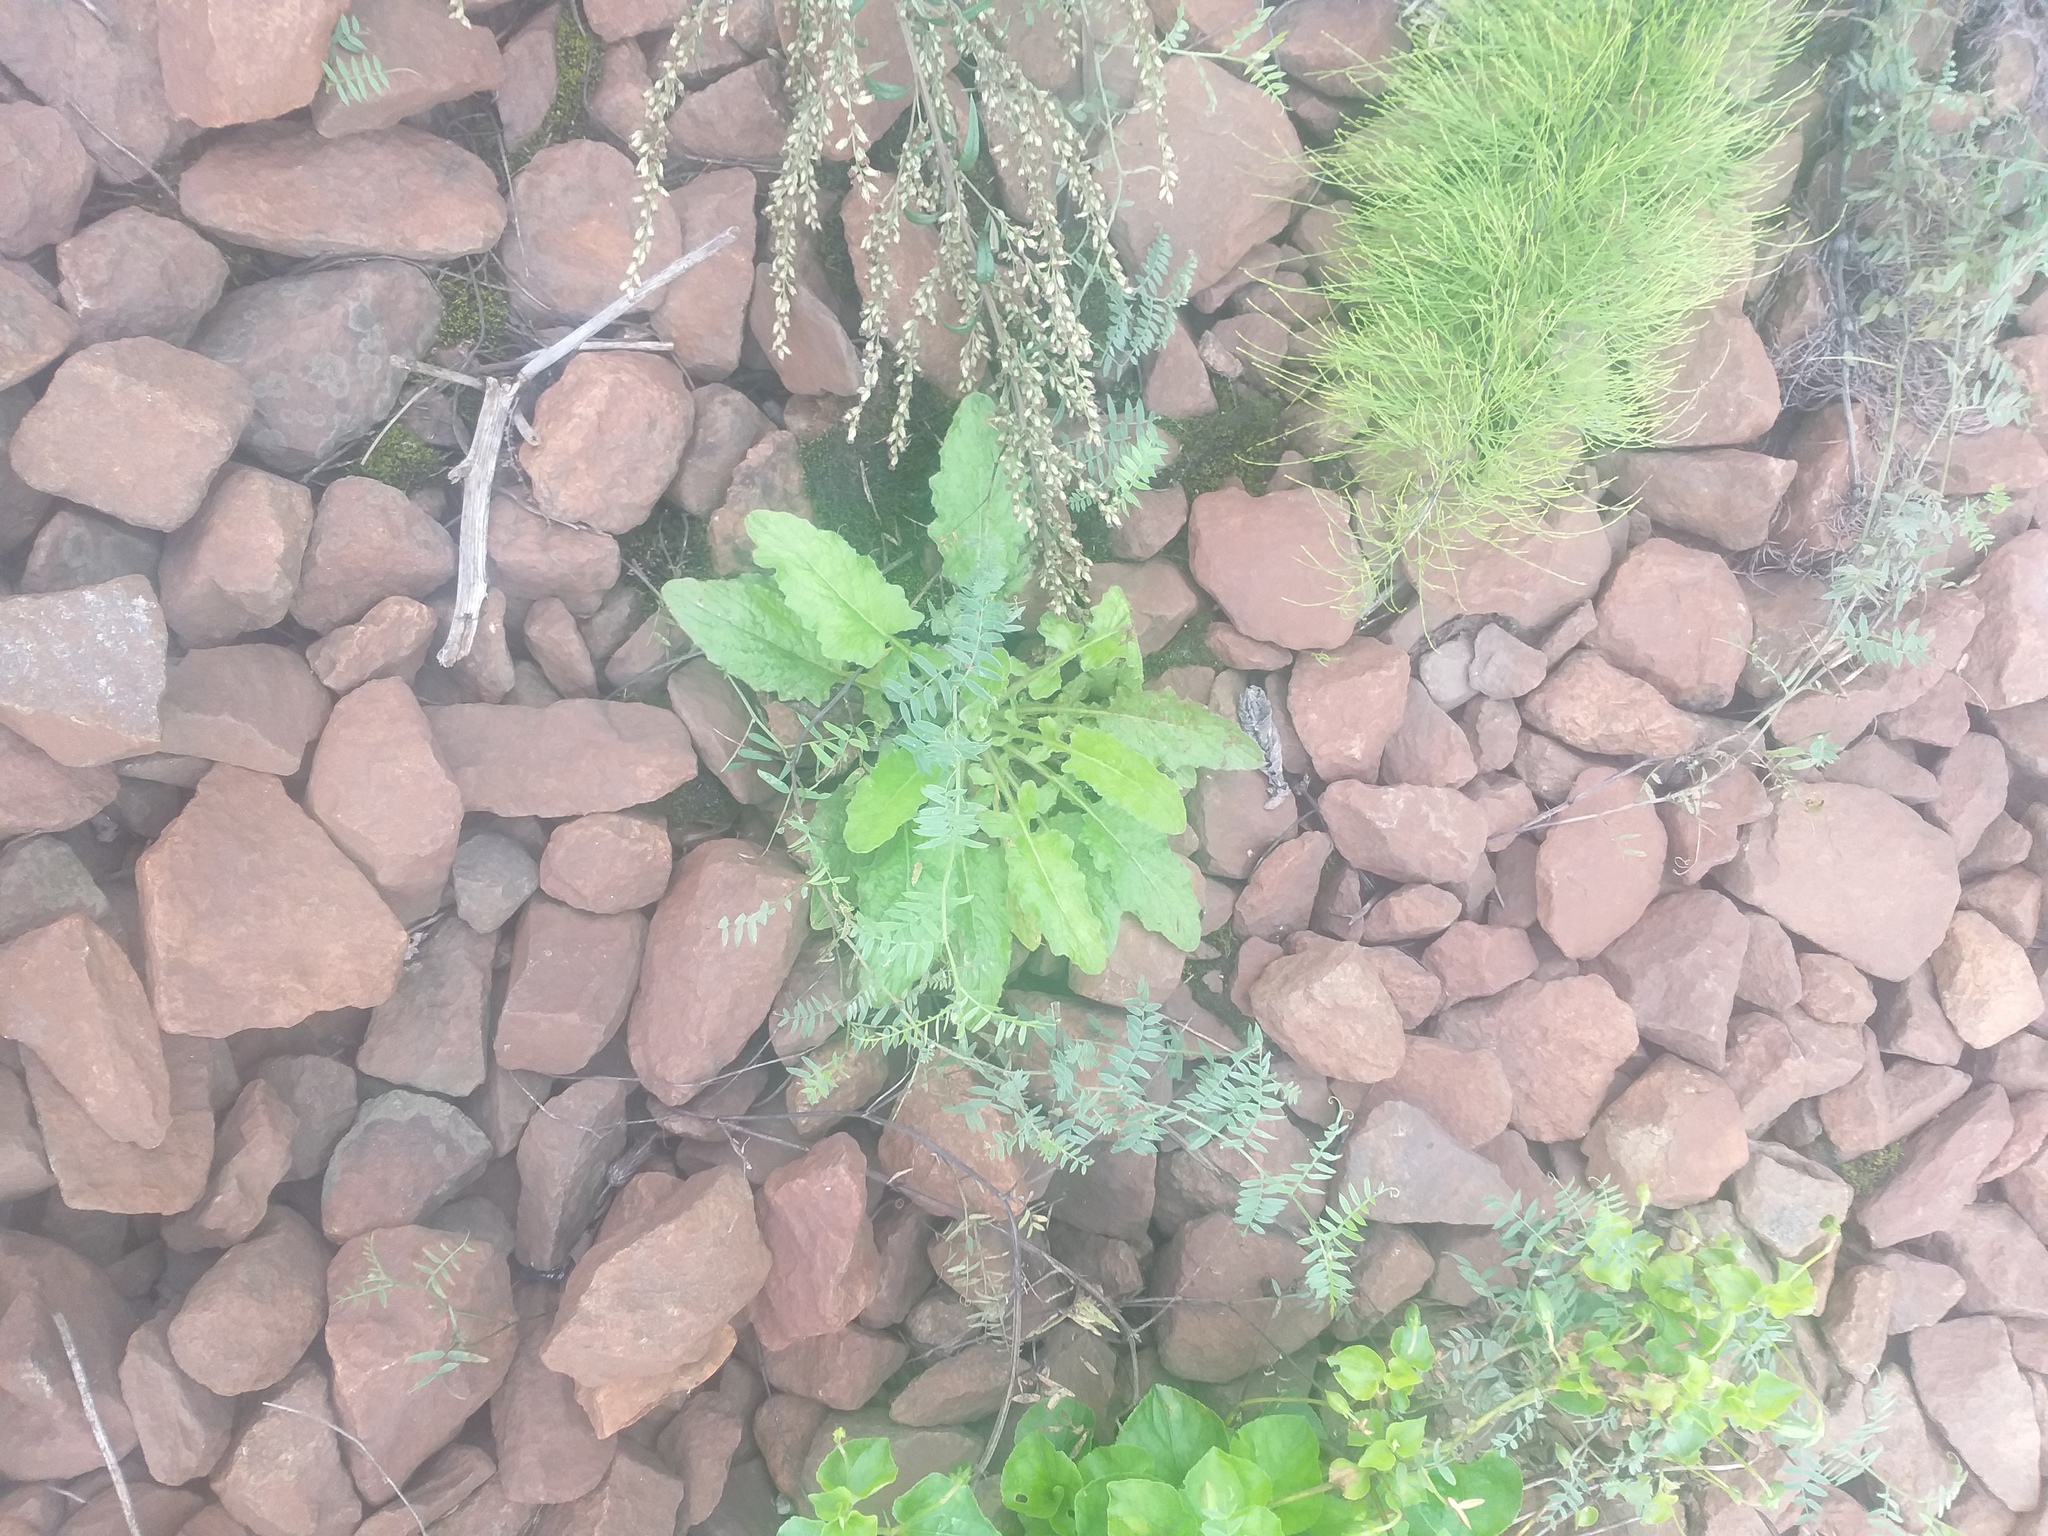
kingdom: Plantae
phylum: Tracheophyta
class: Magnoliopsida
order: Asterales
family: Asteraceae
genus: Lapsana
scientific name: Lapsana communis
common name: Nipplewort
